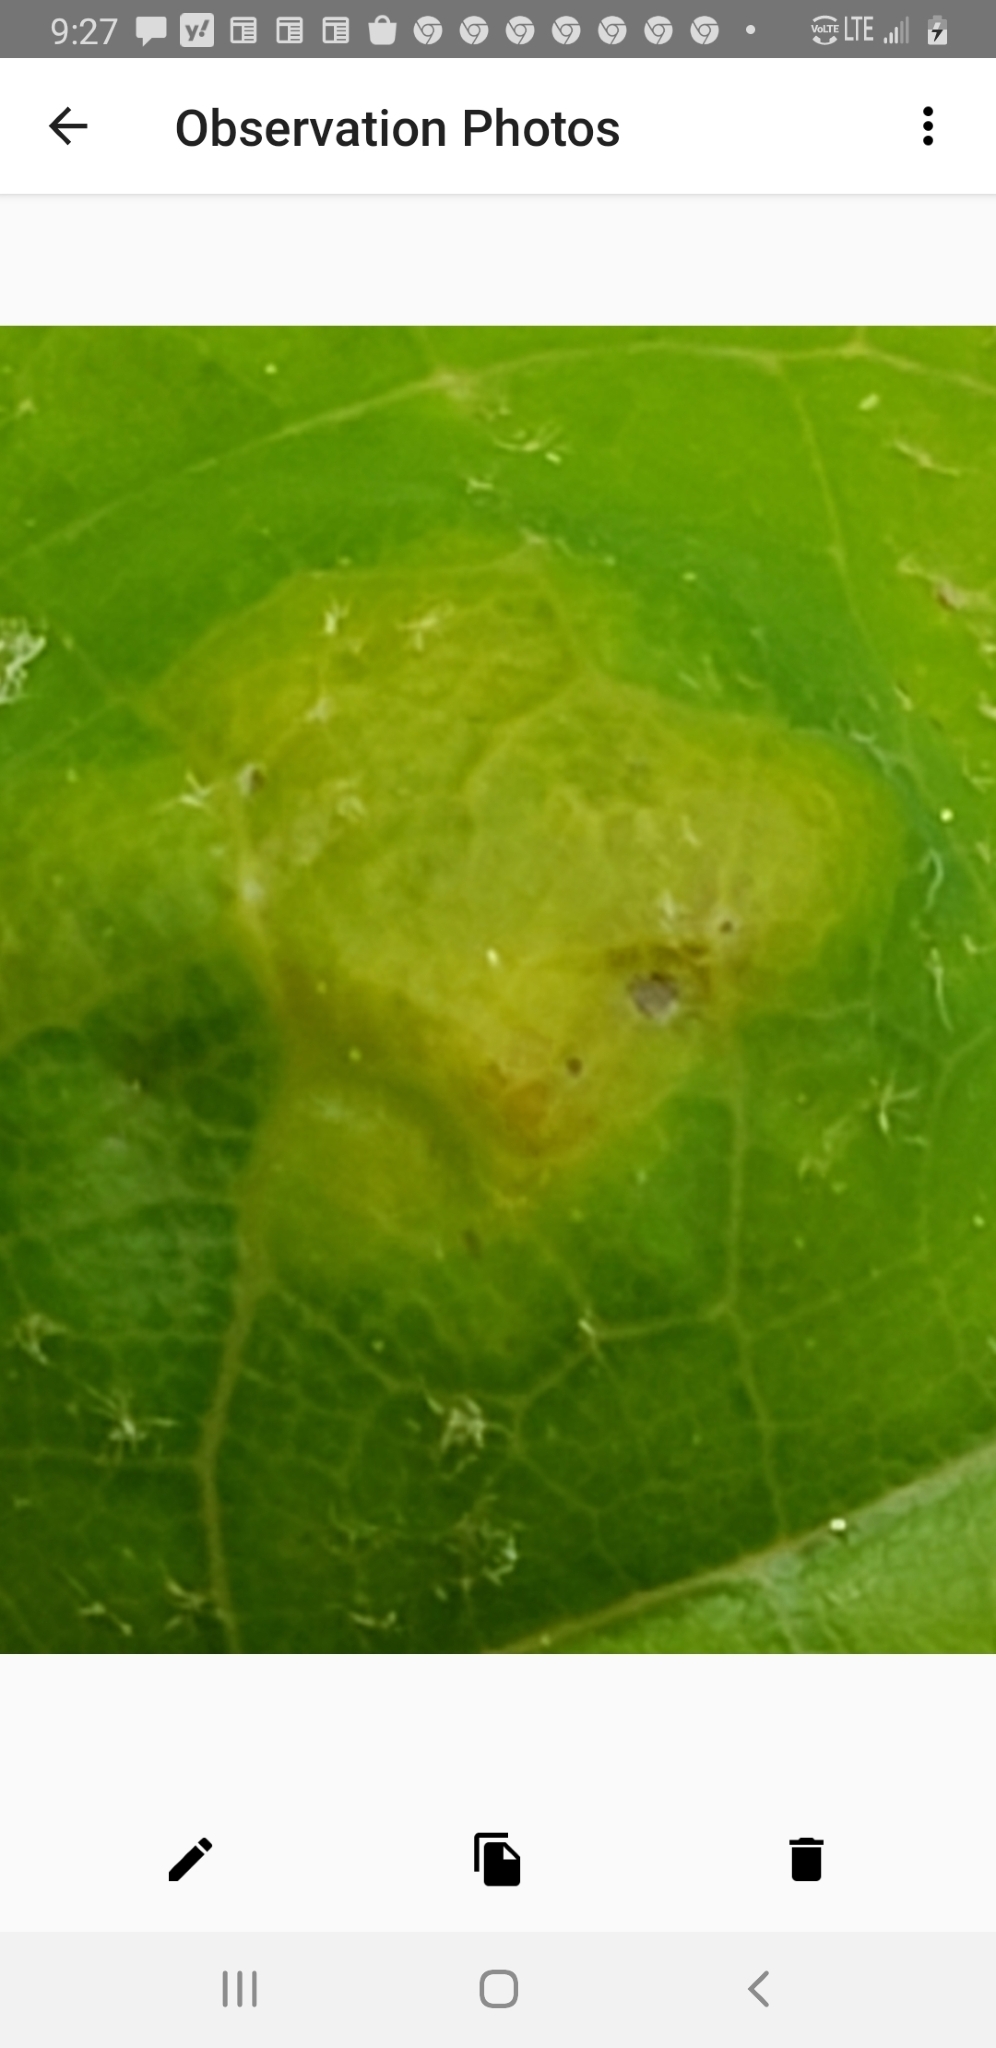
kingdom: Animalia
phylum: Arthropoda
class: Arachnida
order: Trombidiformes
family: Eriophyidae
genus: Aceria
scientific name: Aceria
